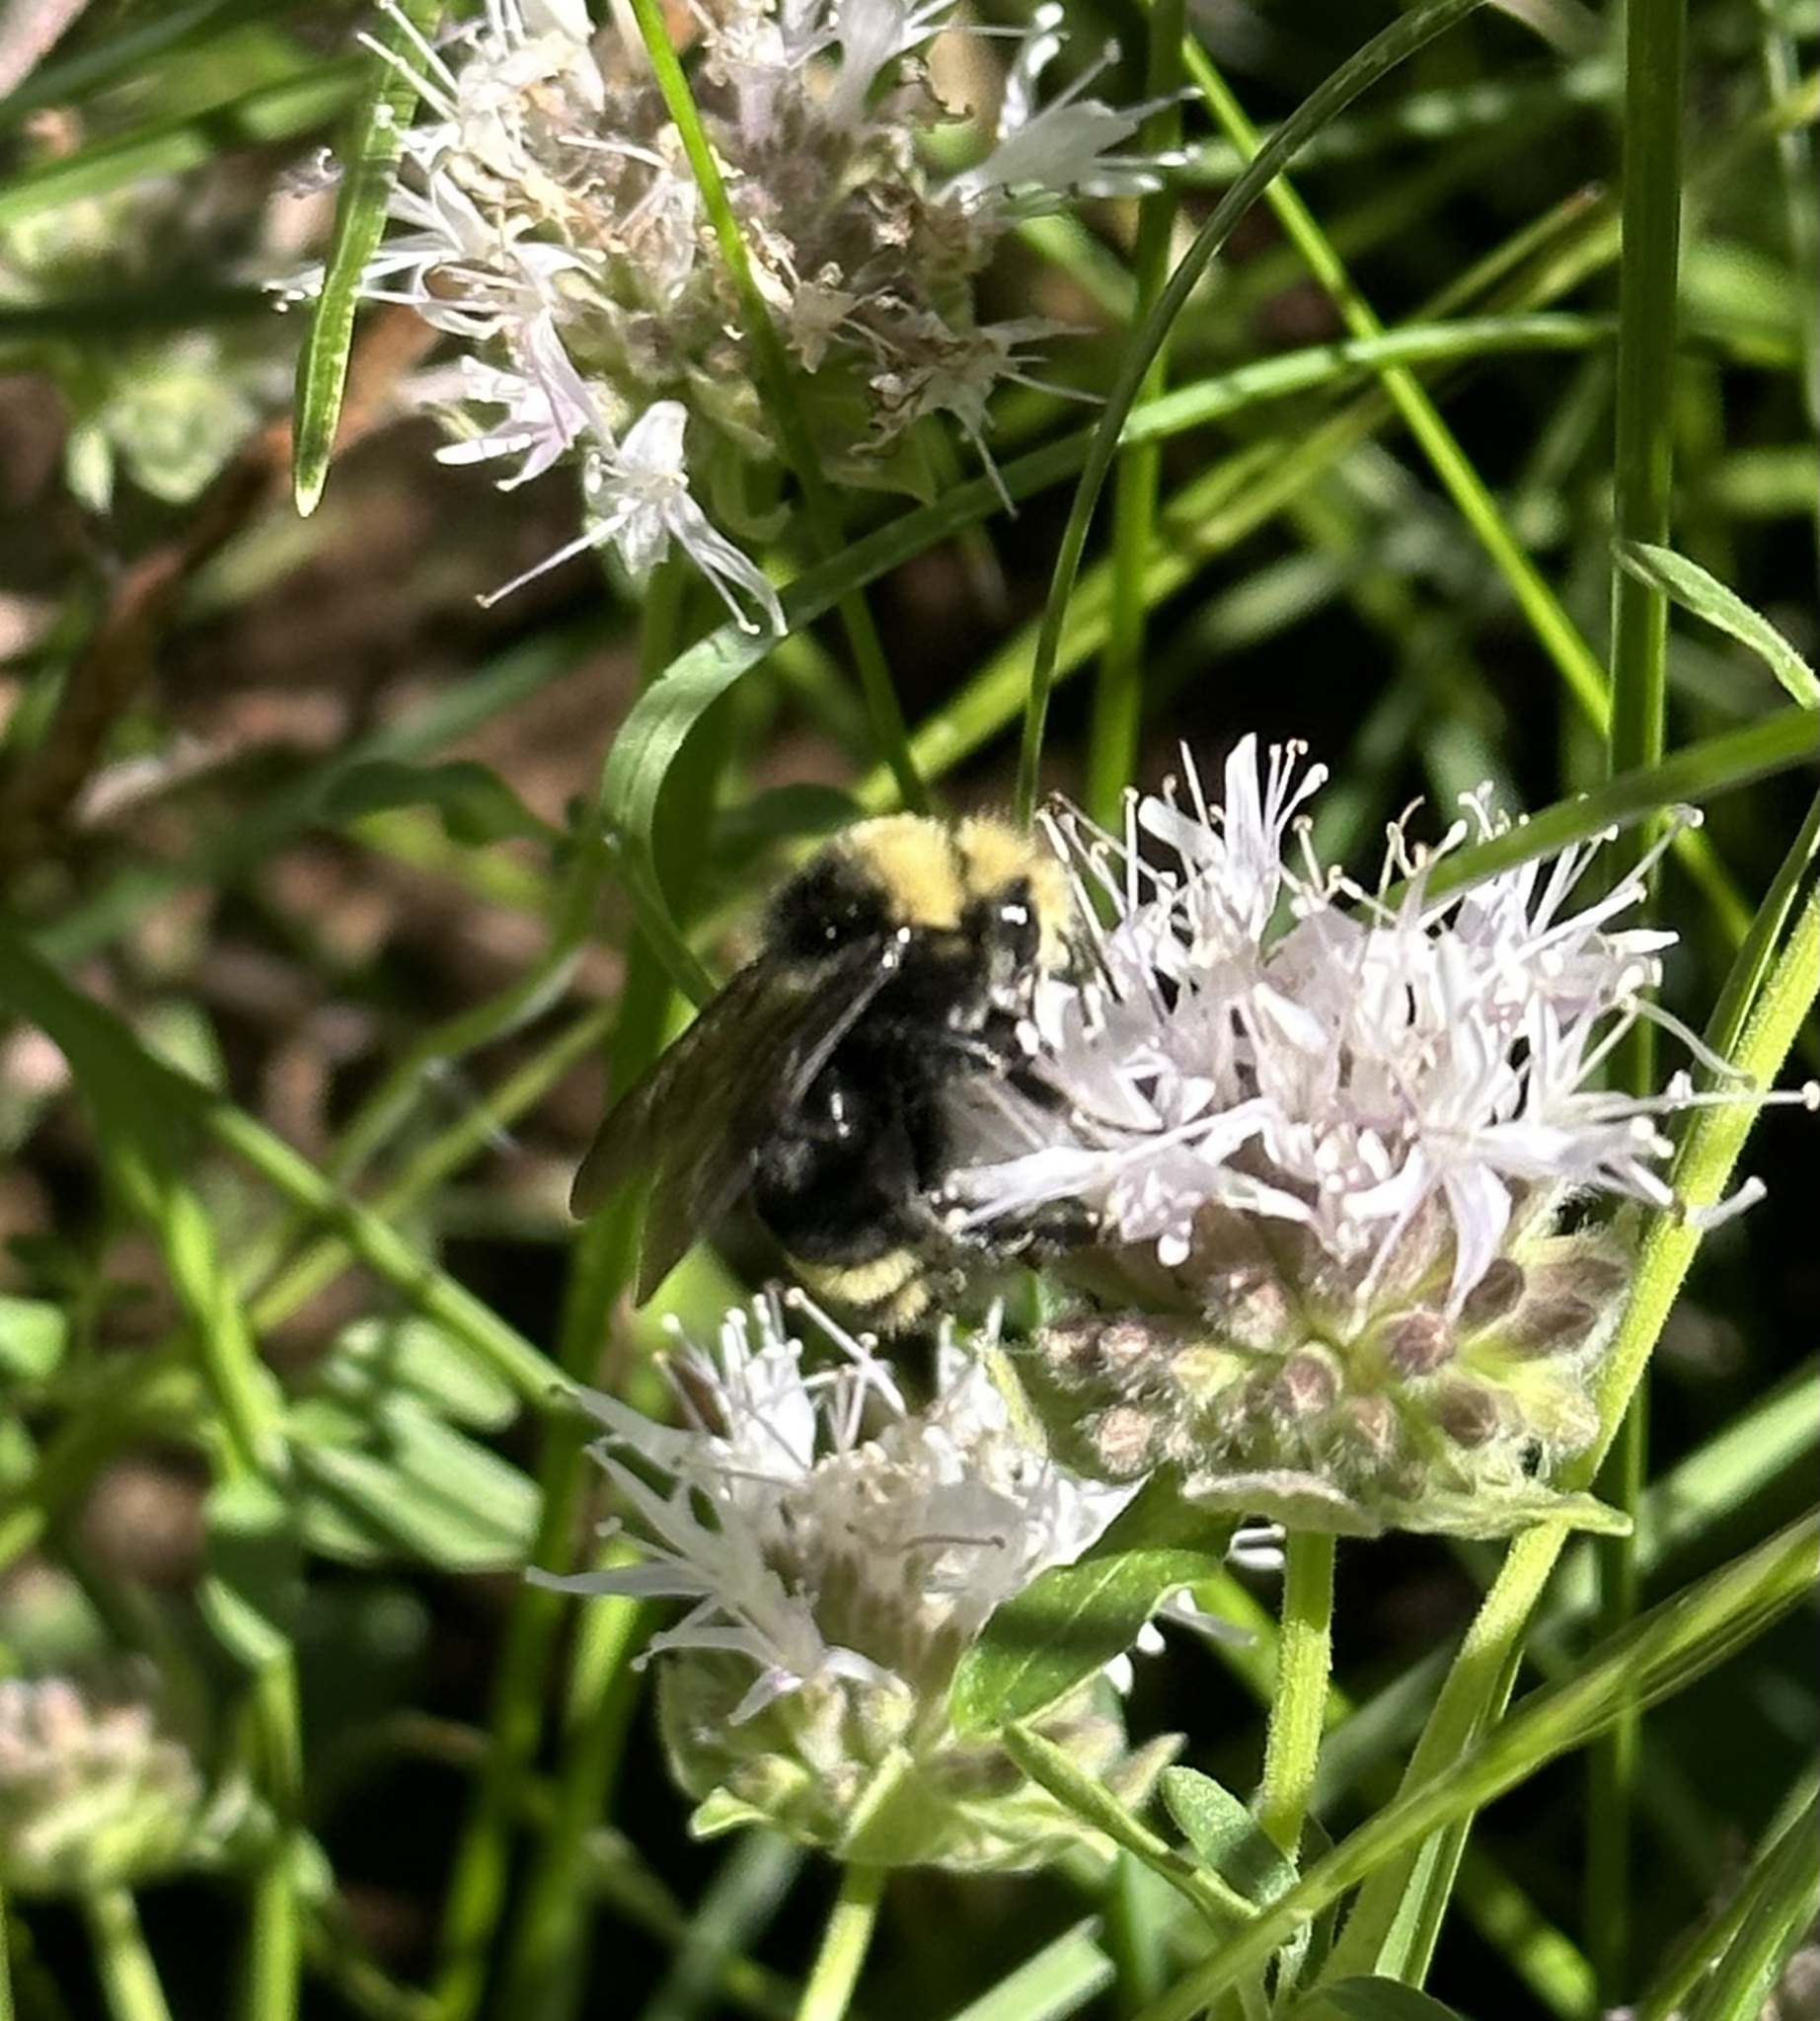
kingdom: Animalia
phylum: Arthropoda
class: Insecta
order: Hymenoptera
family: Apidae
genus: Bombus
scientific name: Bombus vosnesenskii
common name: Vosnesensky bumble bee
